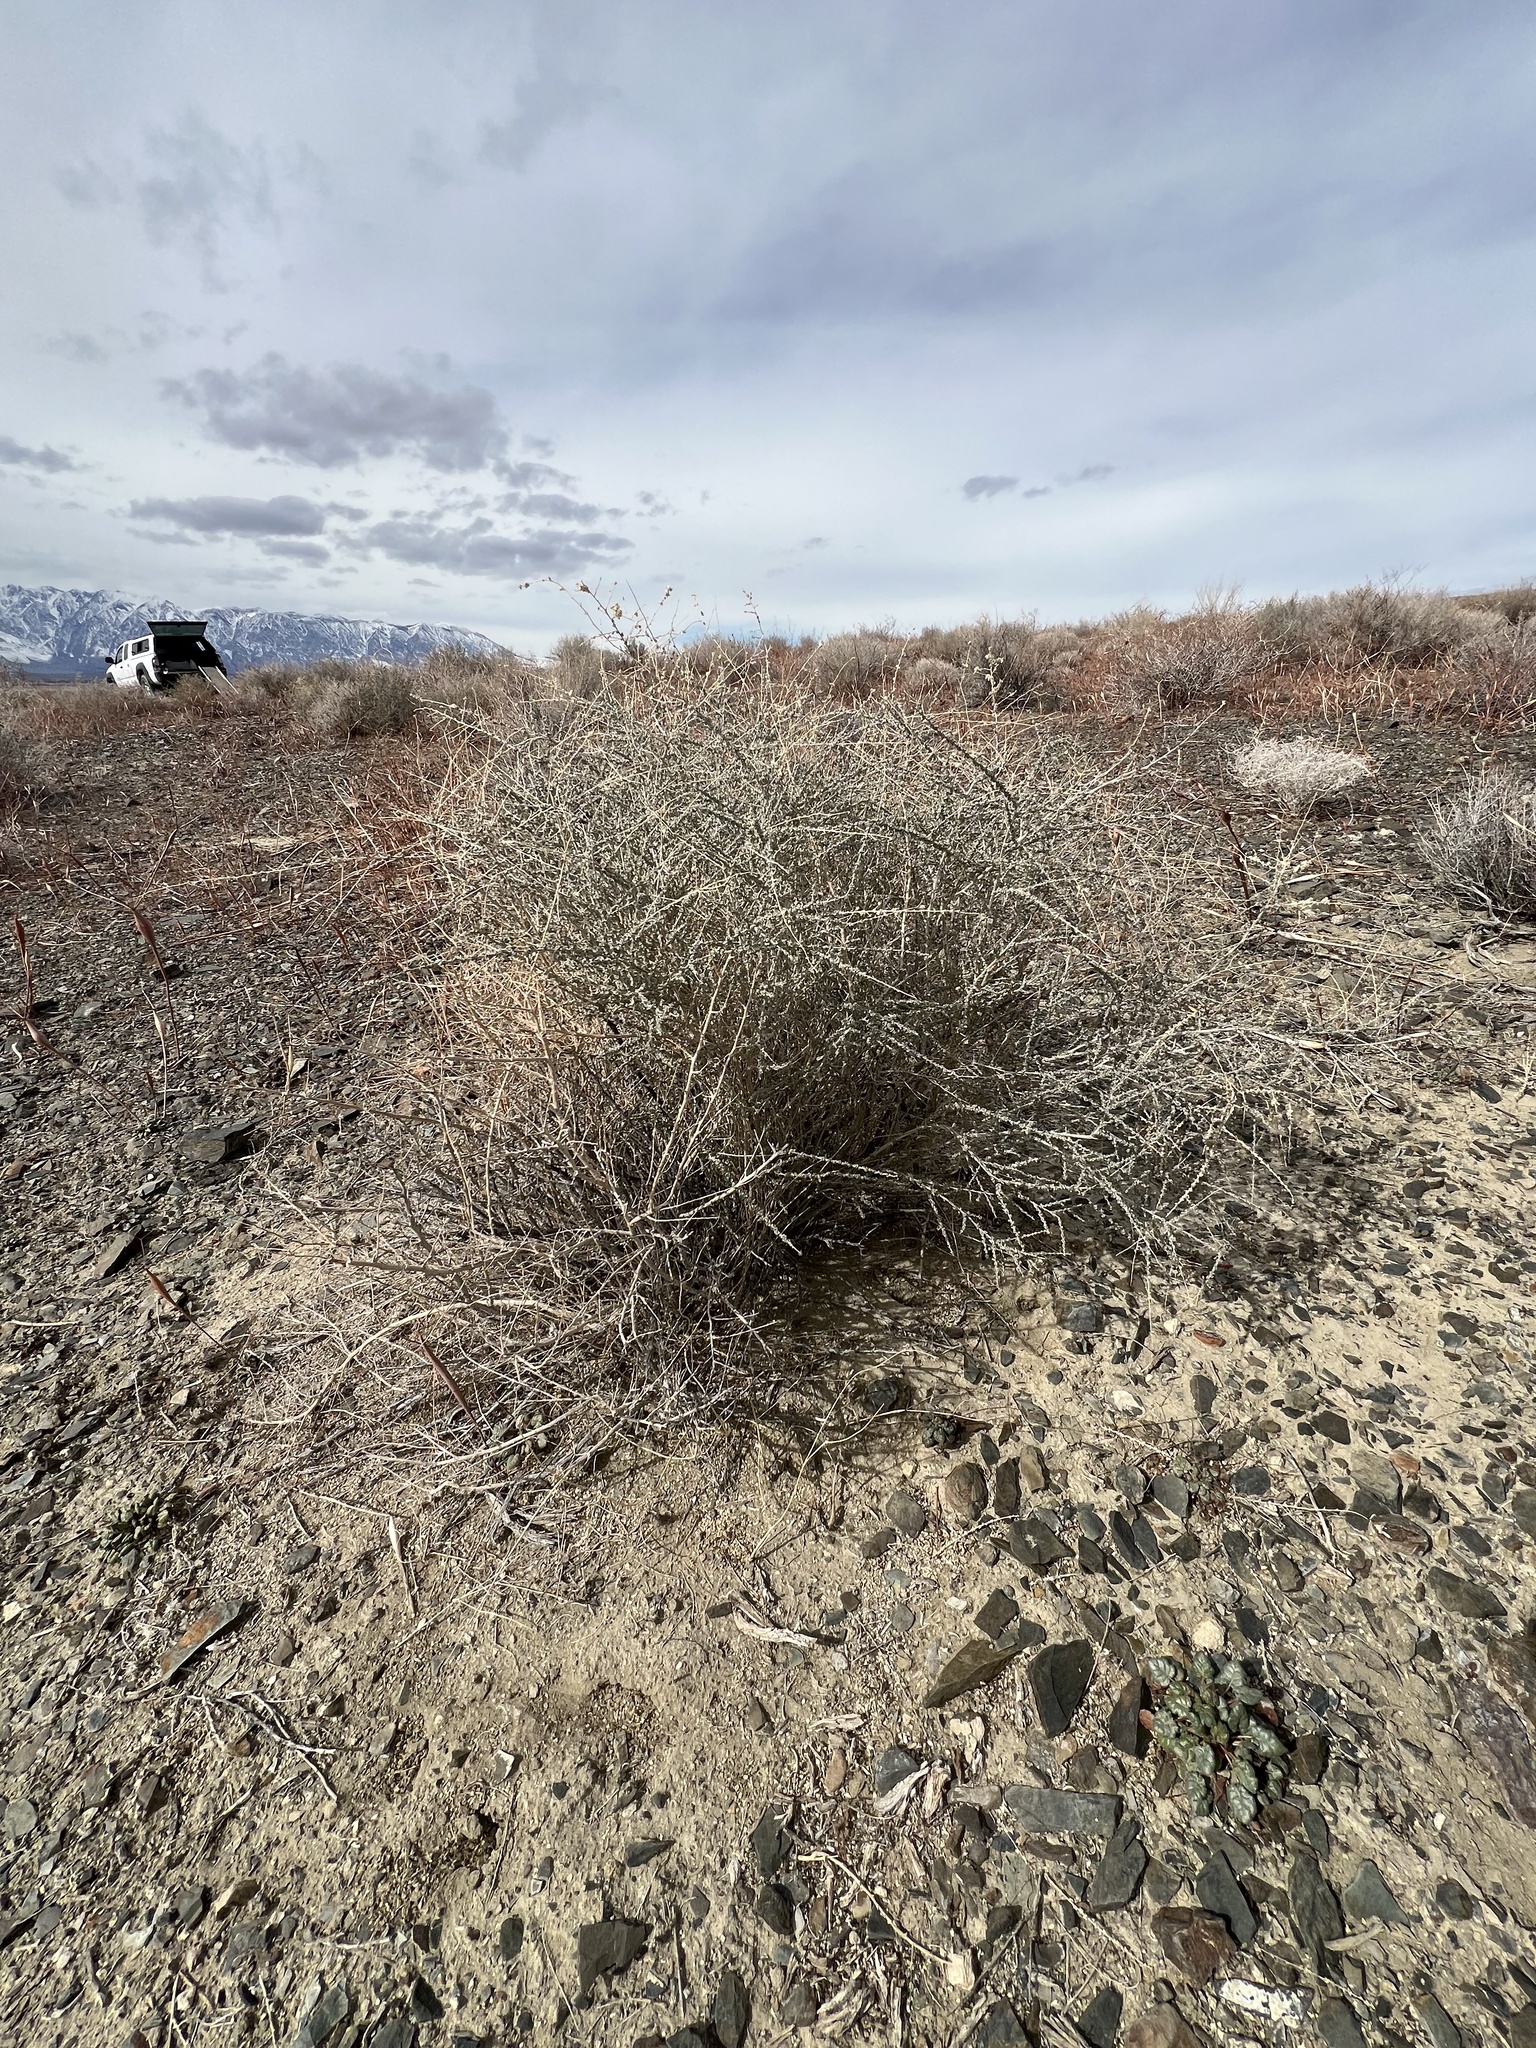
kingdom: Plantae
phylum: Tracheophyta
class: Magnoliopsida
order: Caryophyllales
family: Amaranthaceae
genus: Atriplex
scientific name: Atriplex polycarpa
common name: Desert saltbush
